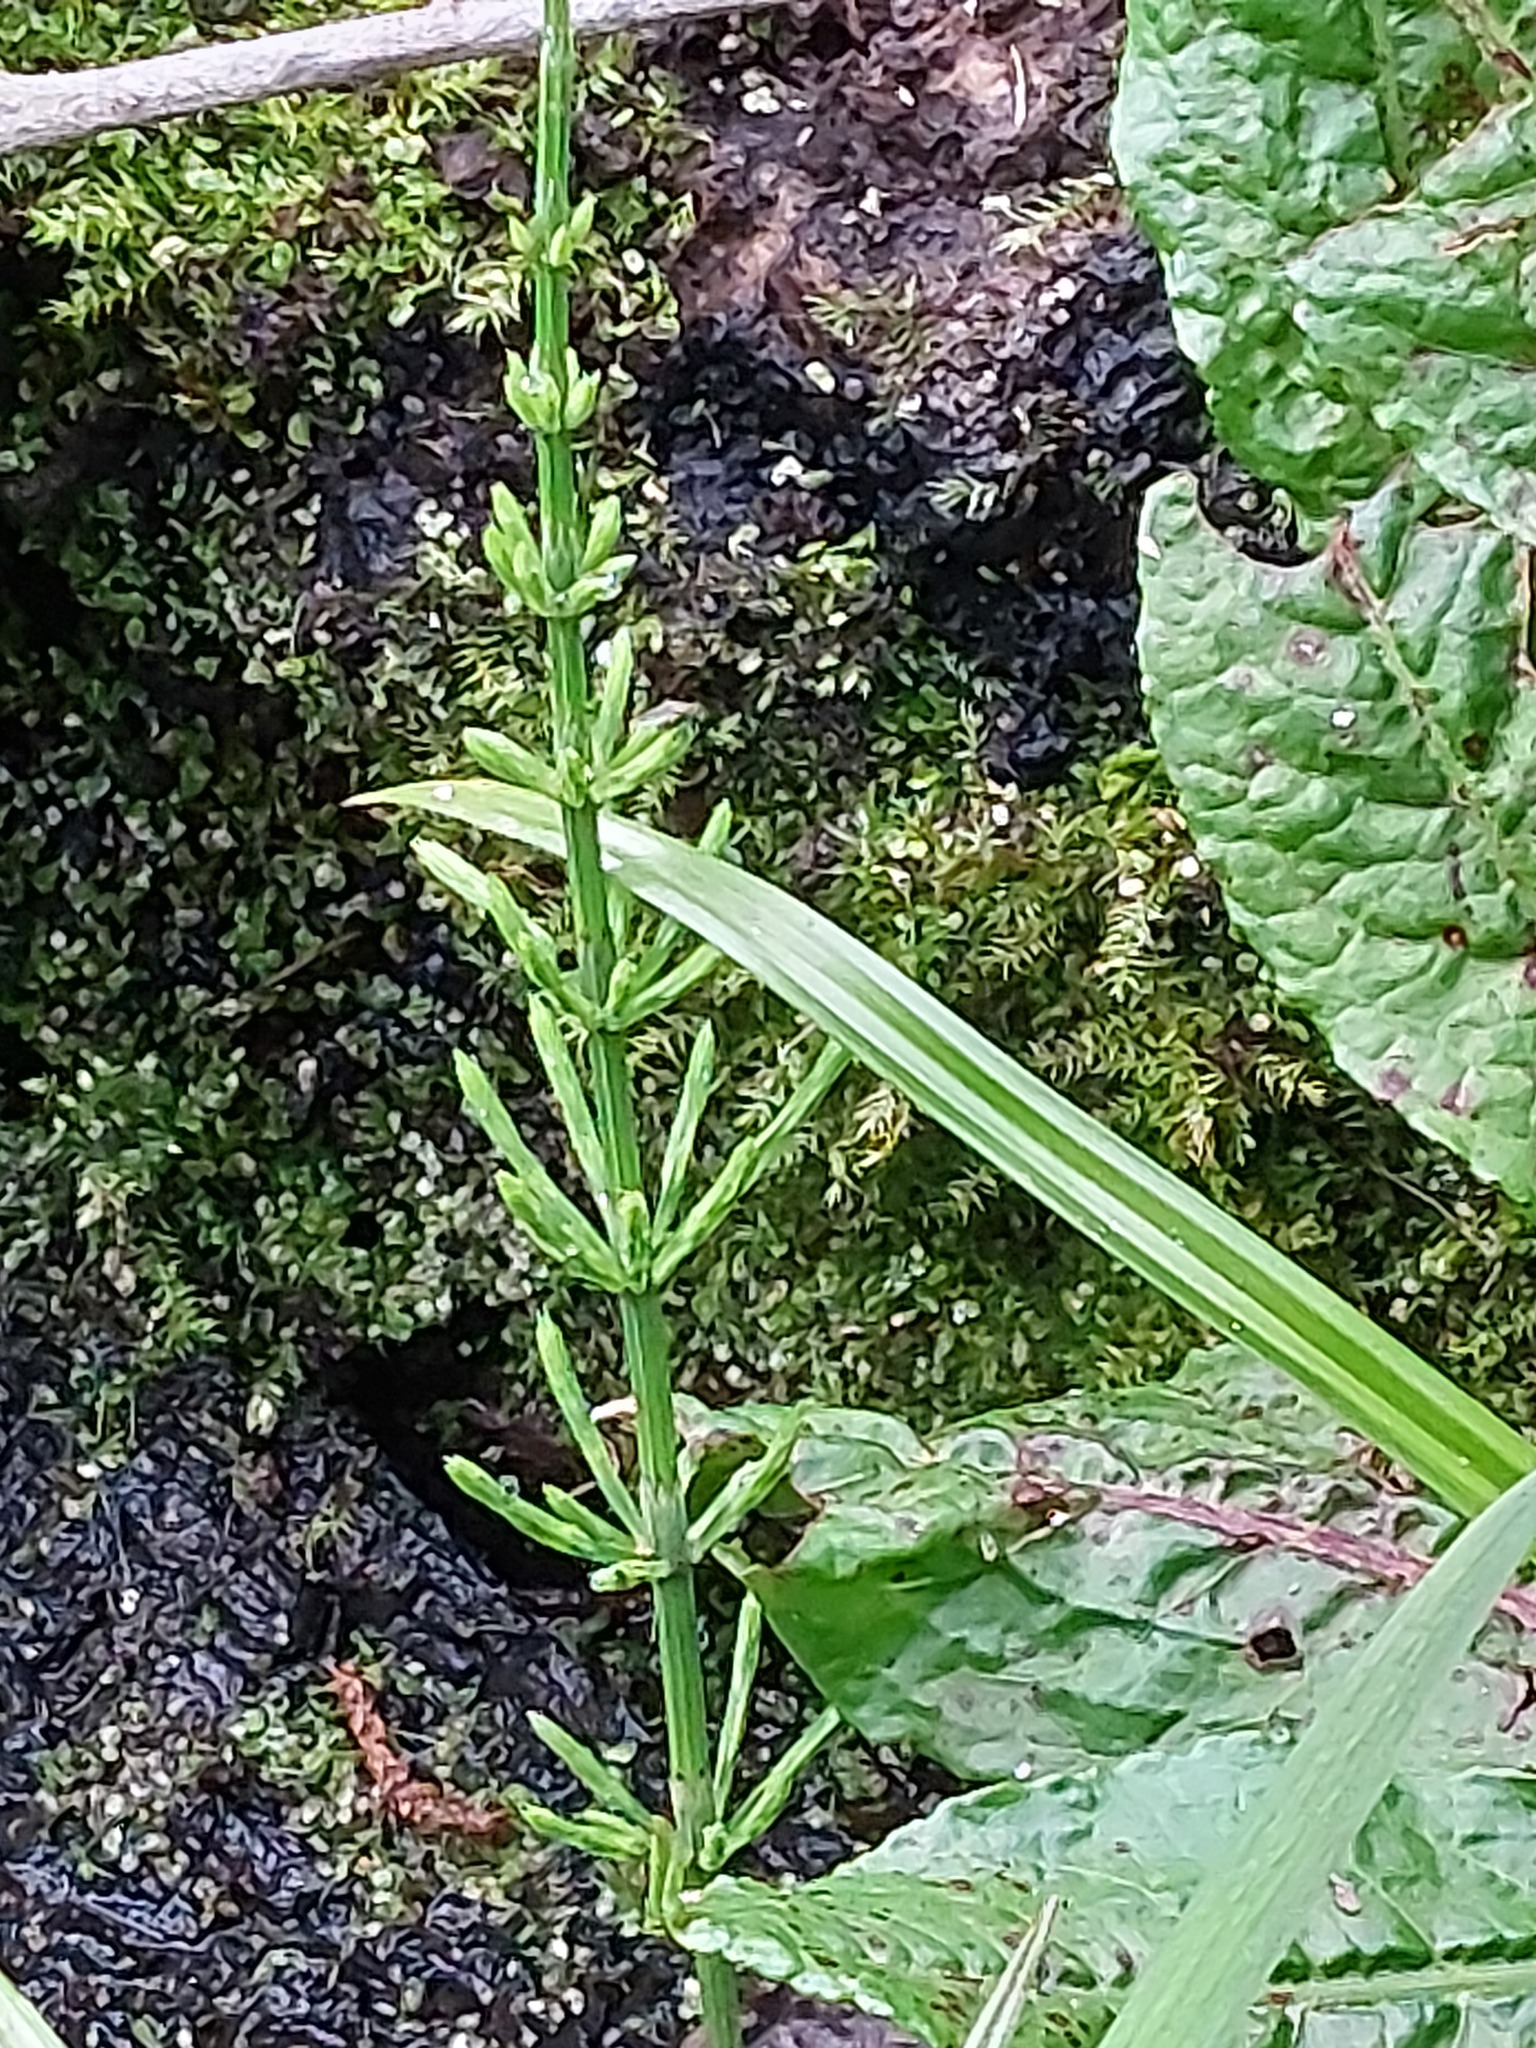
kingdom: Plantae
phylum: Tracheophyta
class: Polypodiopsida
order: Equisetales
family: Equisetaceae
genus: Equisetum
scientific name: Equisetum arvense
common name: Field horsetail
